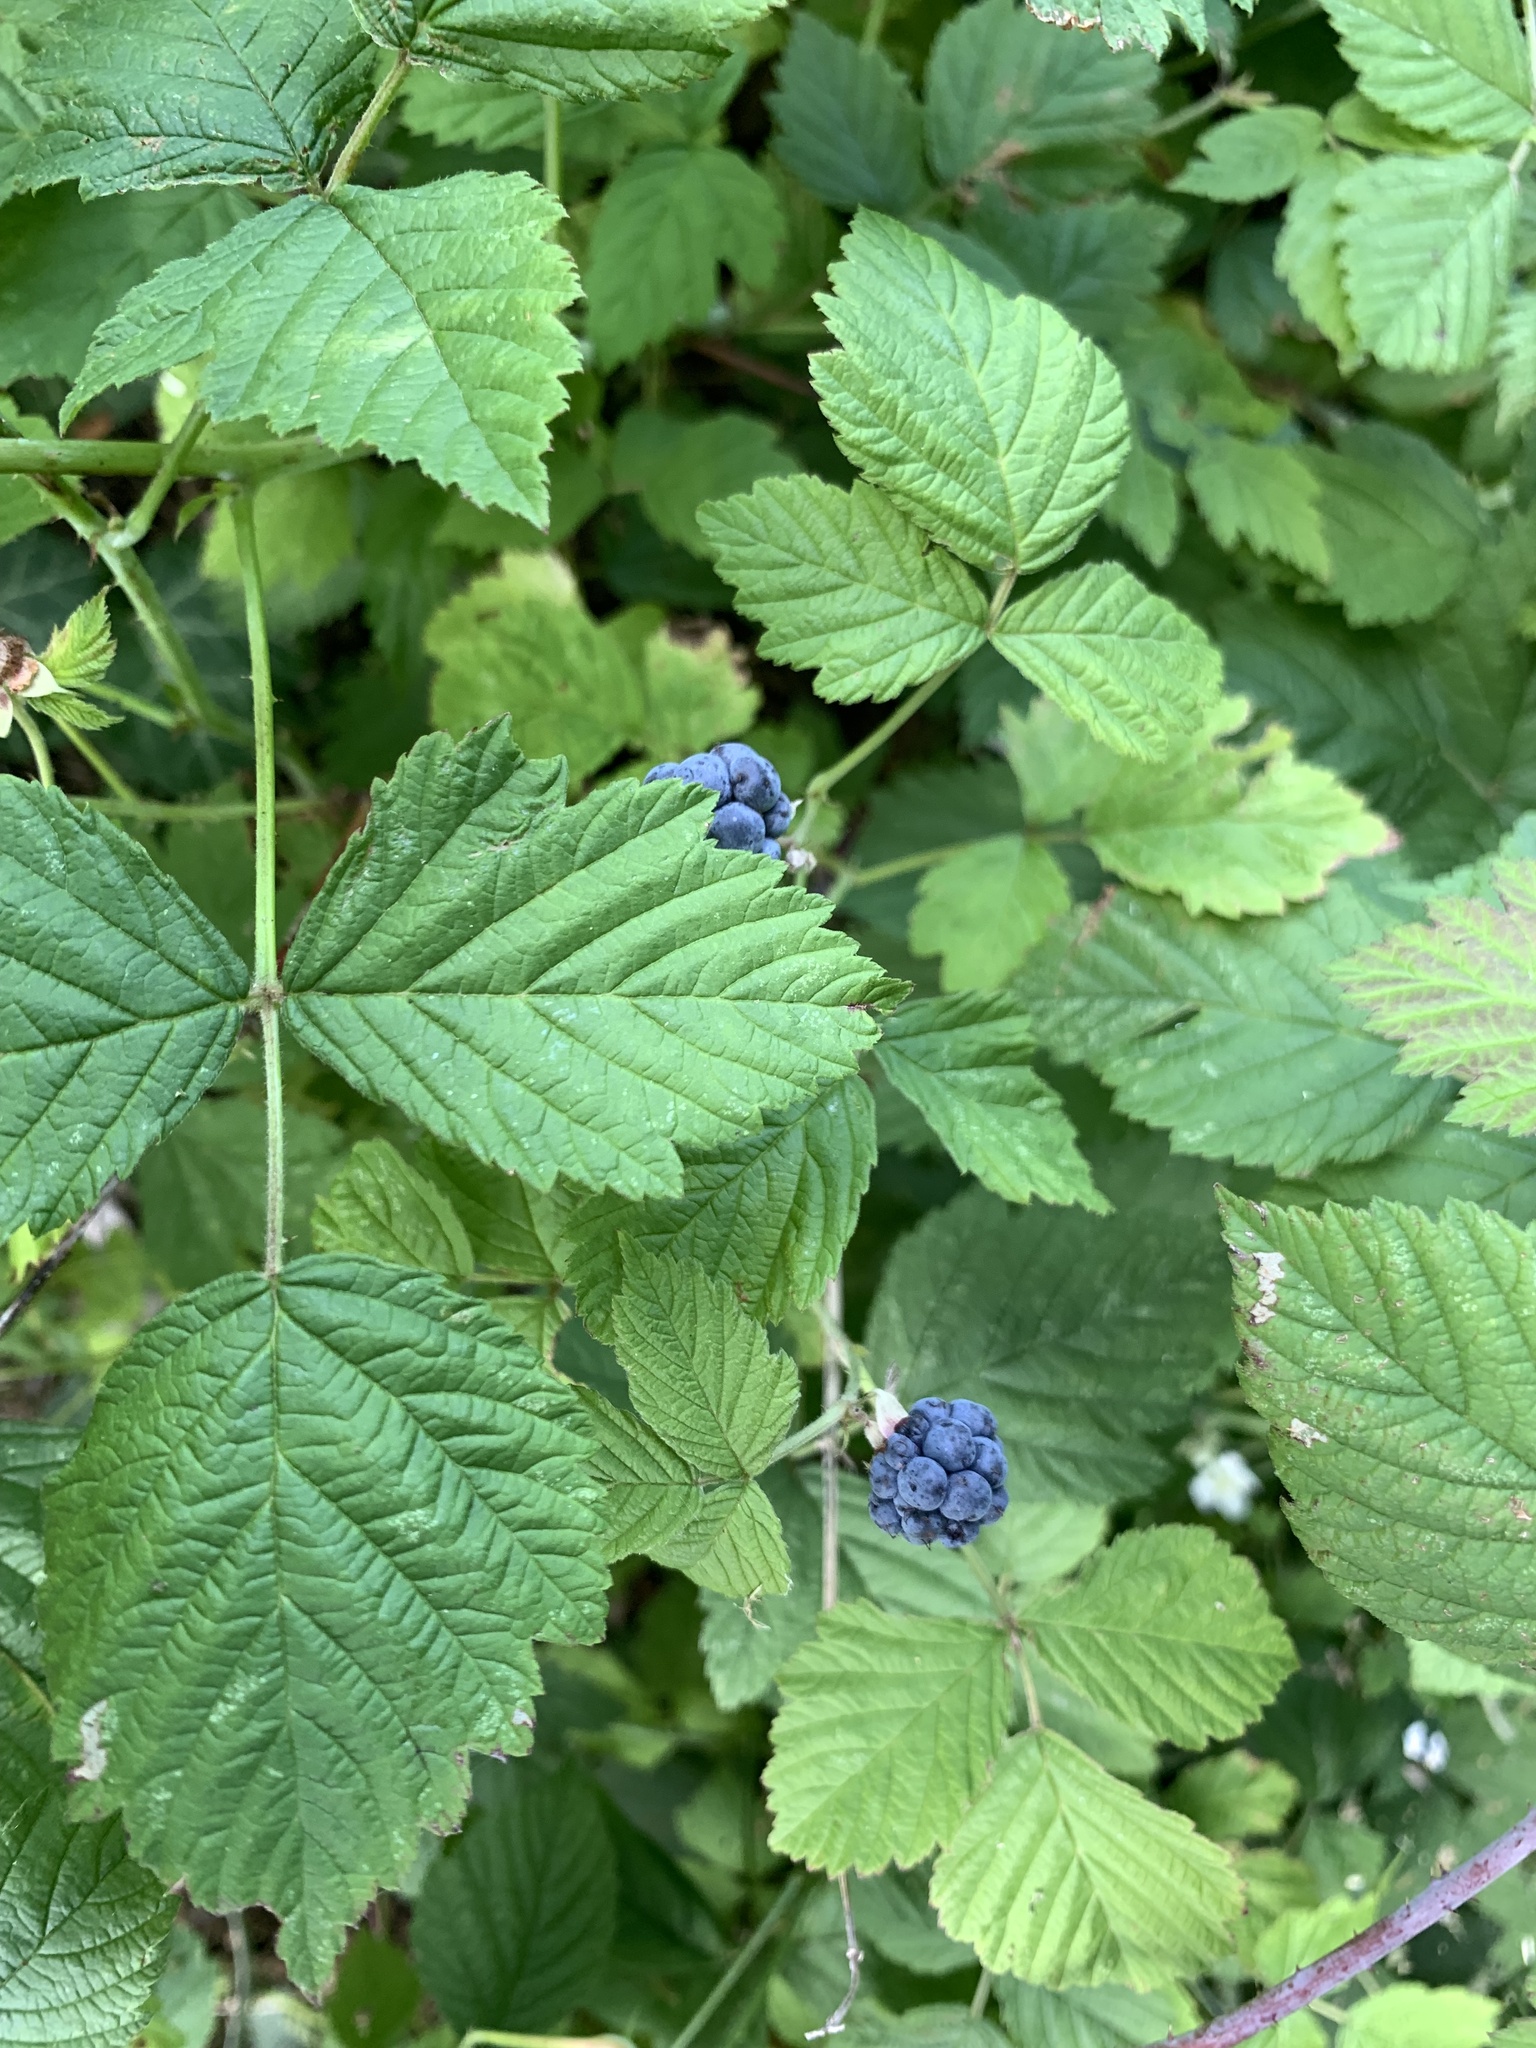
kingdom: Plantae
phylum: Tracheophyta
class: Magnoliopsida
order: Rosales
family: Rosaceae
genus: Rubus
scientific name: Rubus caesius
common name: Dewberry
